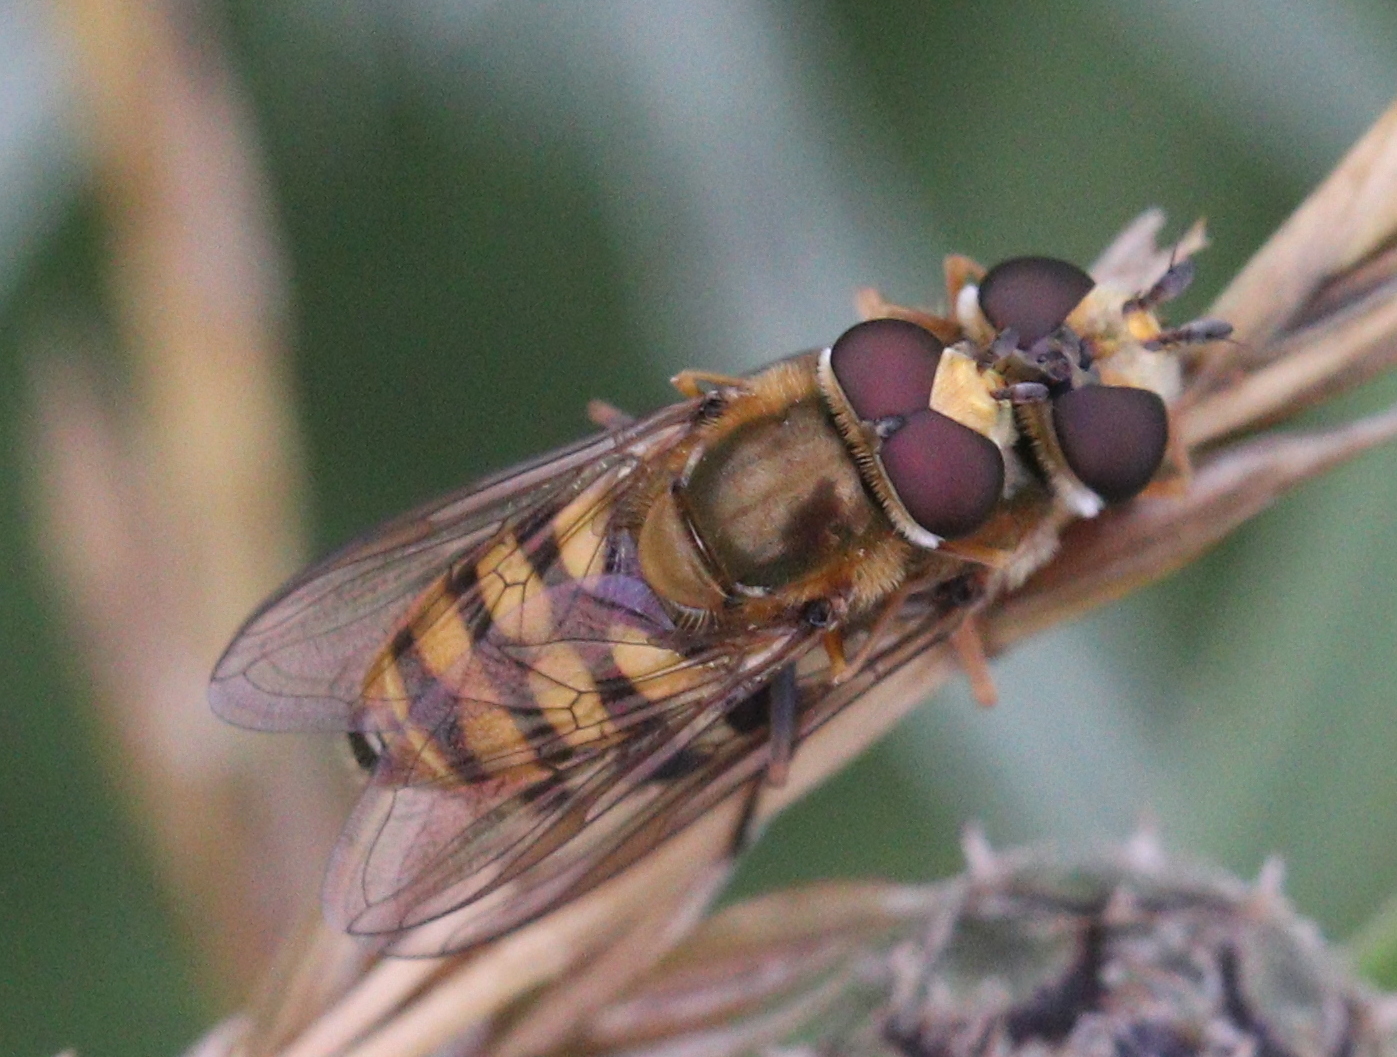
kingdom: Animalia
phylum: Arthropoda
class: Insecta
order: Diptera
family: Syrphidae
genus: Eupeodes
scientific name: Eupeodes corollae
